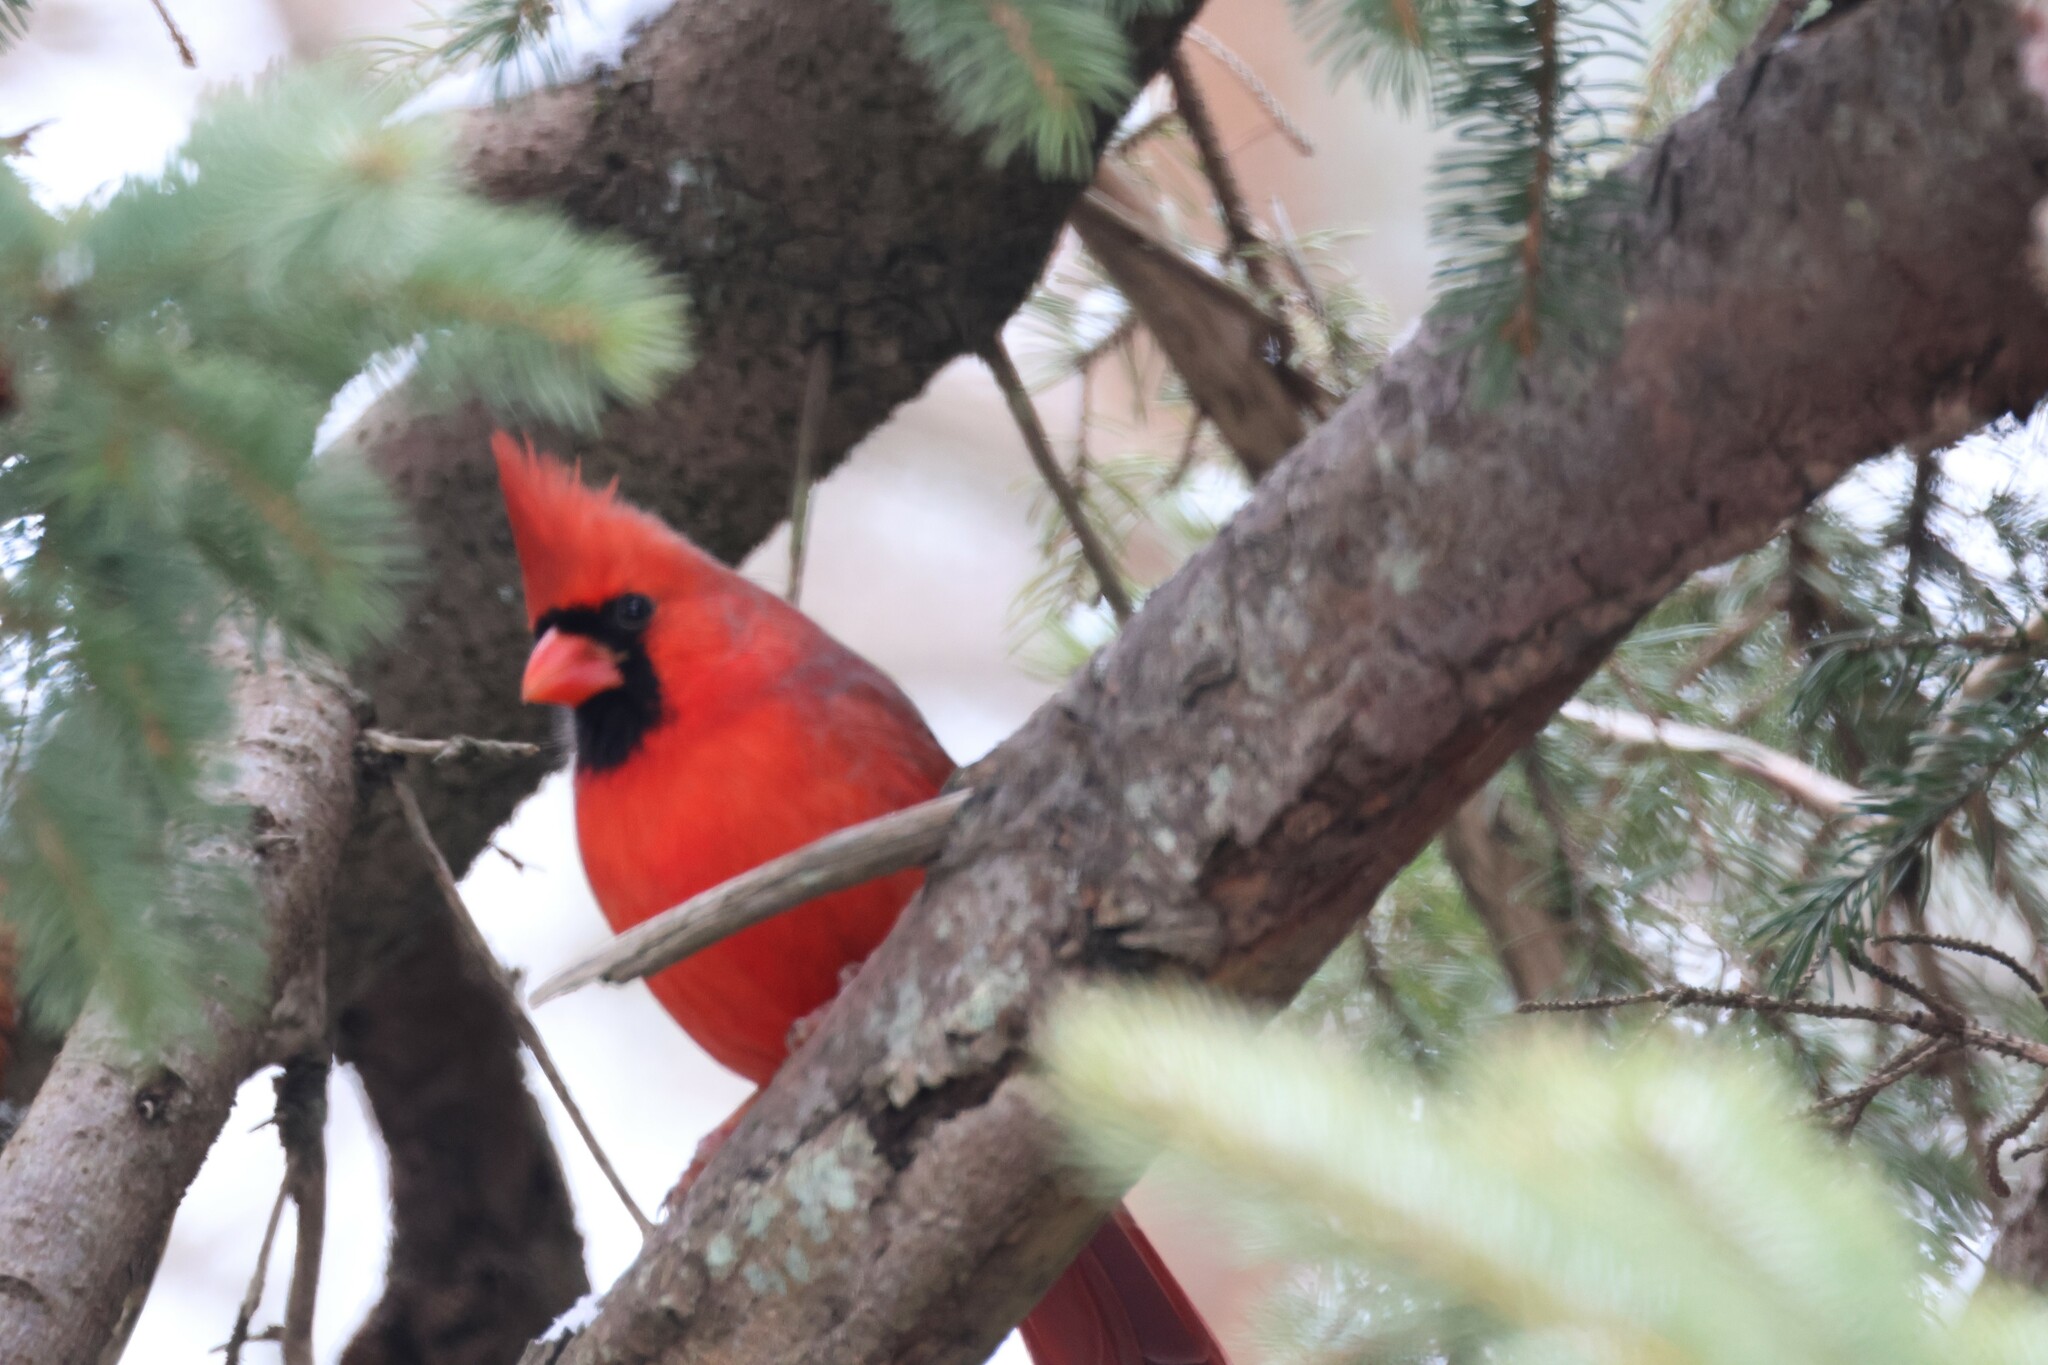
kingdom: Animalia
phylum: Chordata
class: Aves
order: Passeriformes
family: Cardinalidae
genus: Cardinalis
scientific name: Cardinalis cardinalis
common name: Northern cardinal
